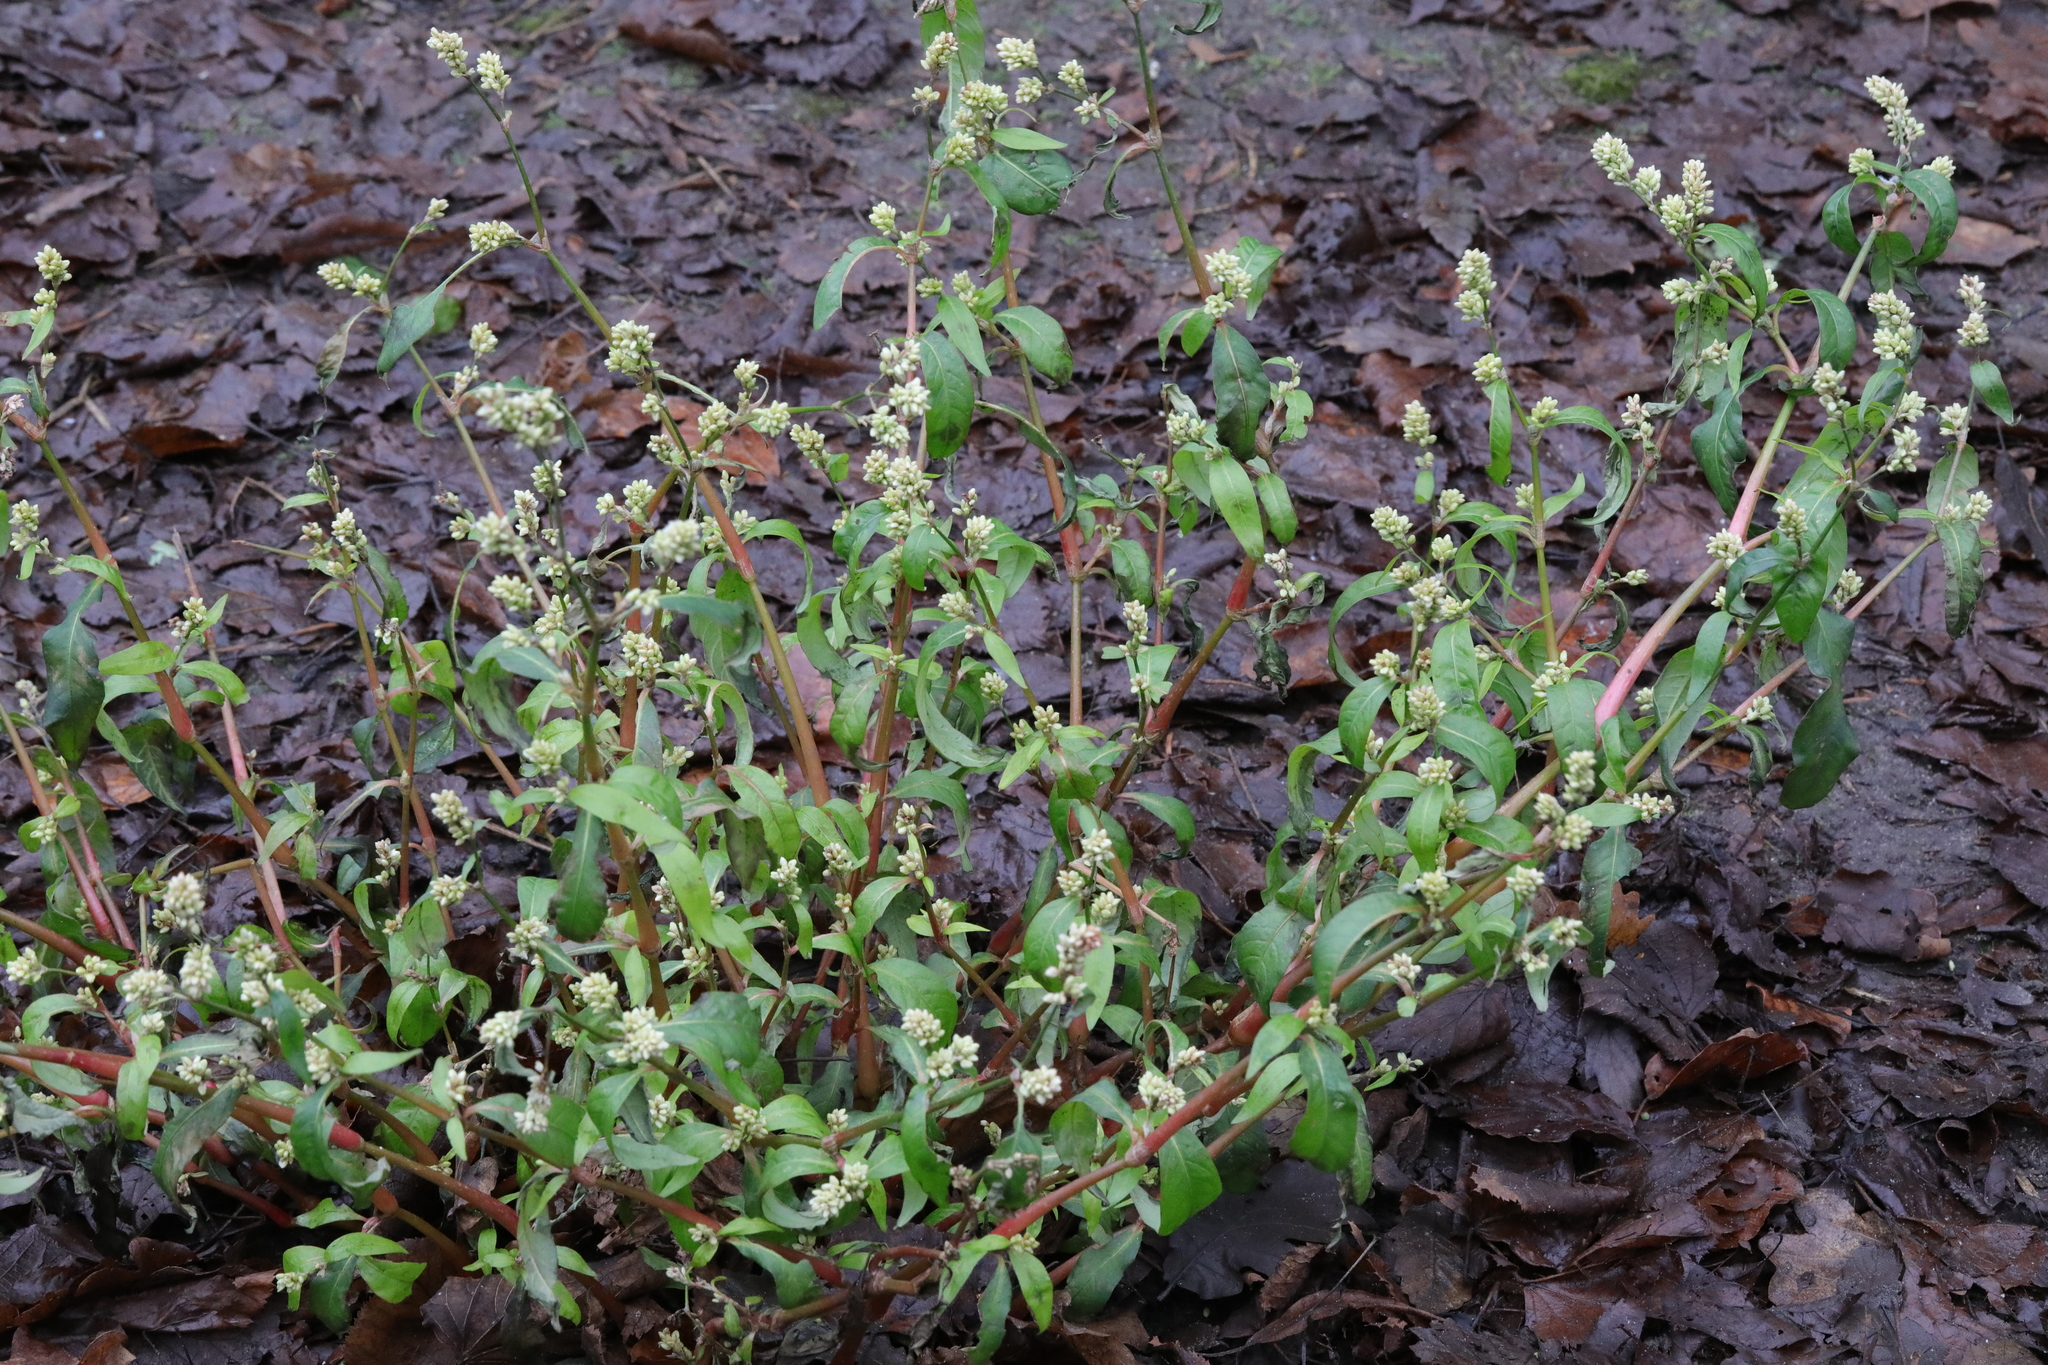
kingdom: Plantae
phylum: Tracheophyta
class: Magnoliopsida
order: Caryophyllales
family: Polygonaceae
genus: Persicaria
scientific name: Persicaria lapathifolia
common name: Curlytop knotweed
